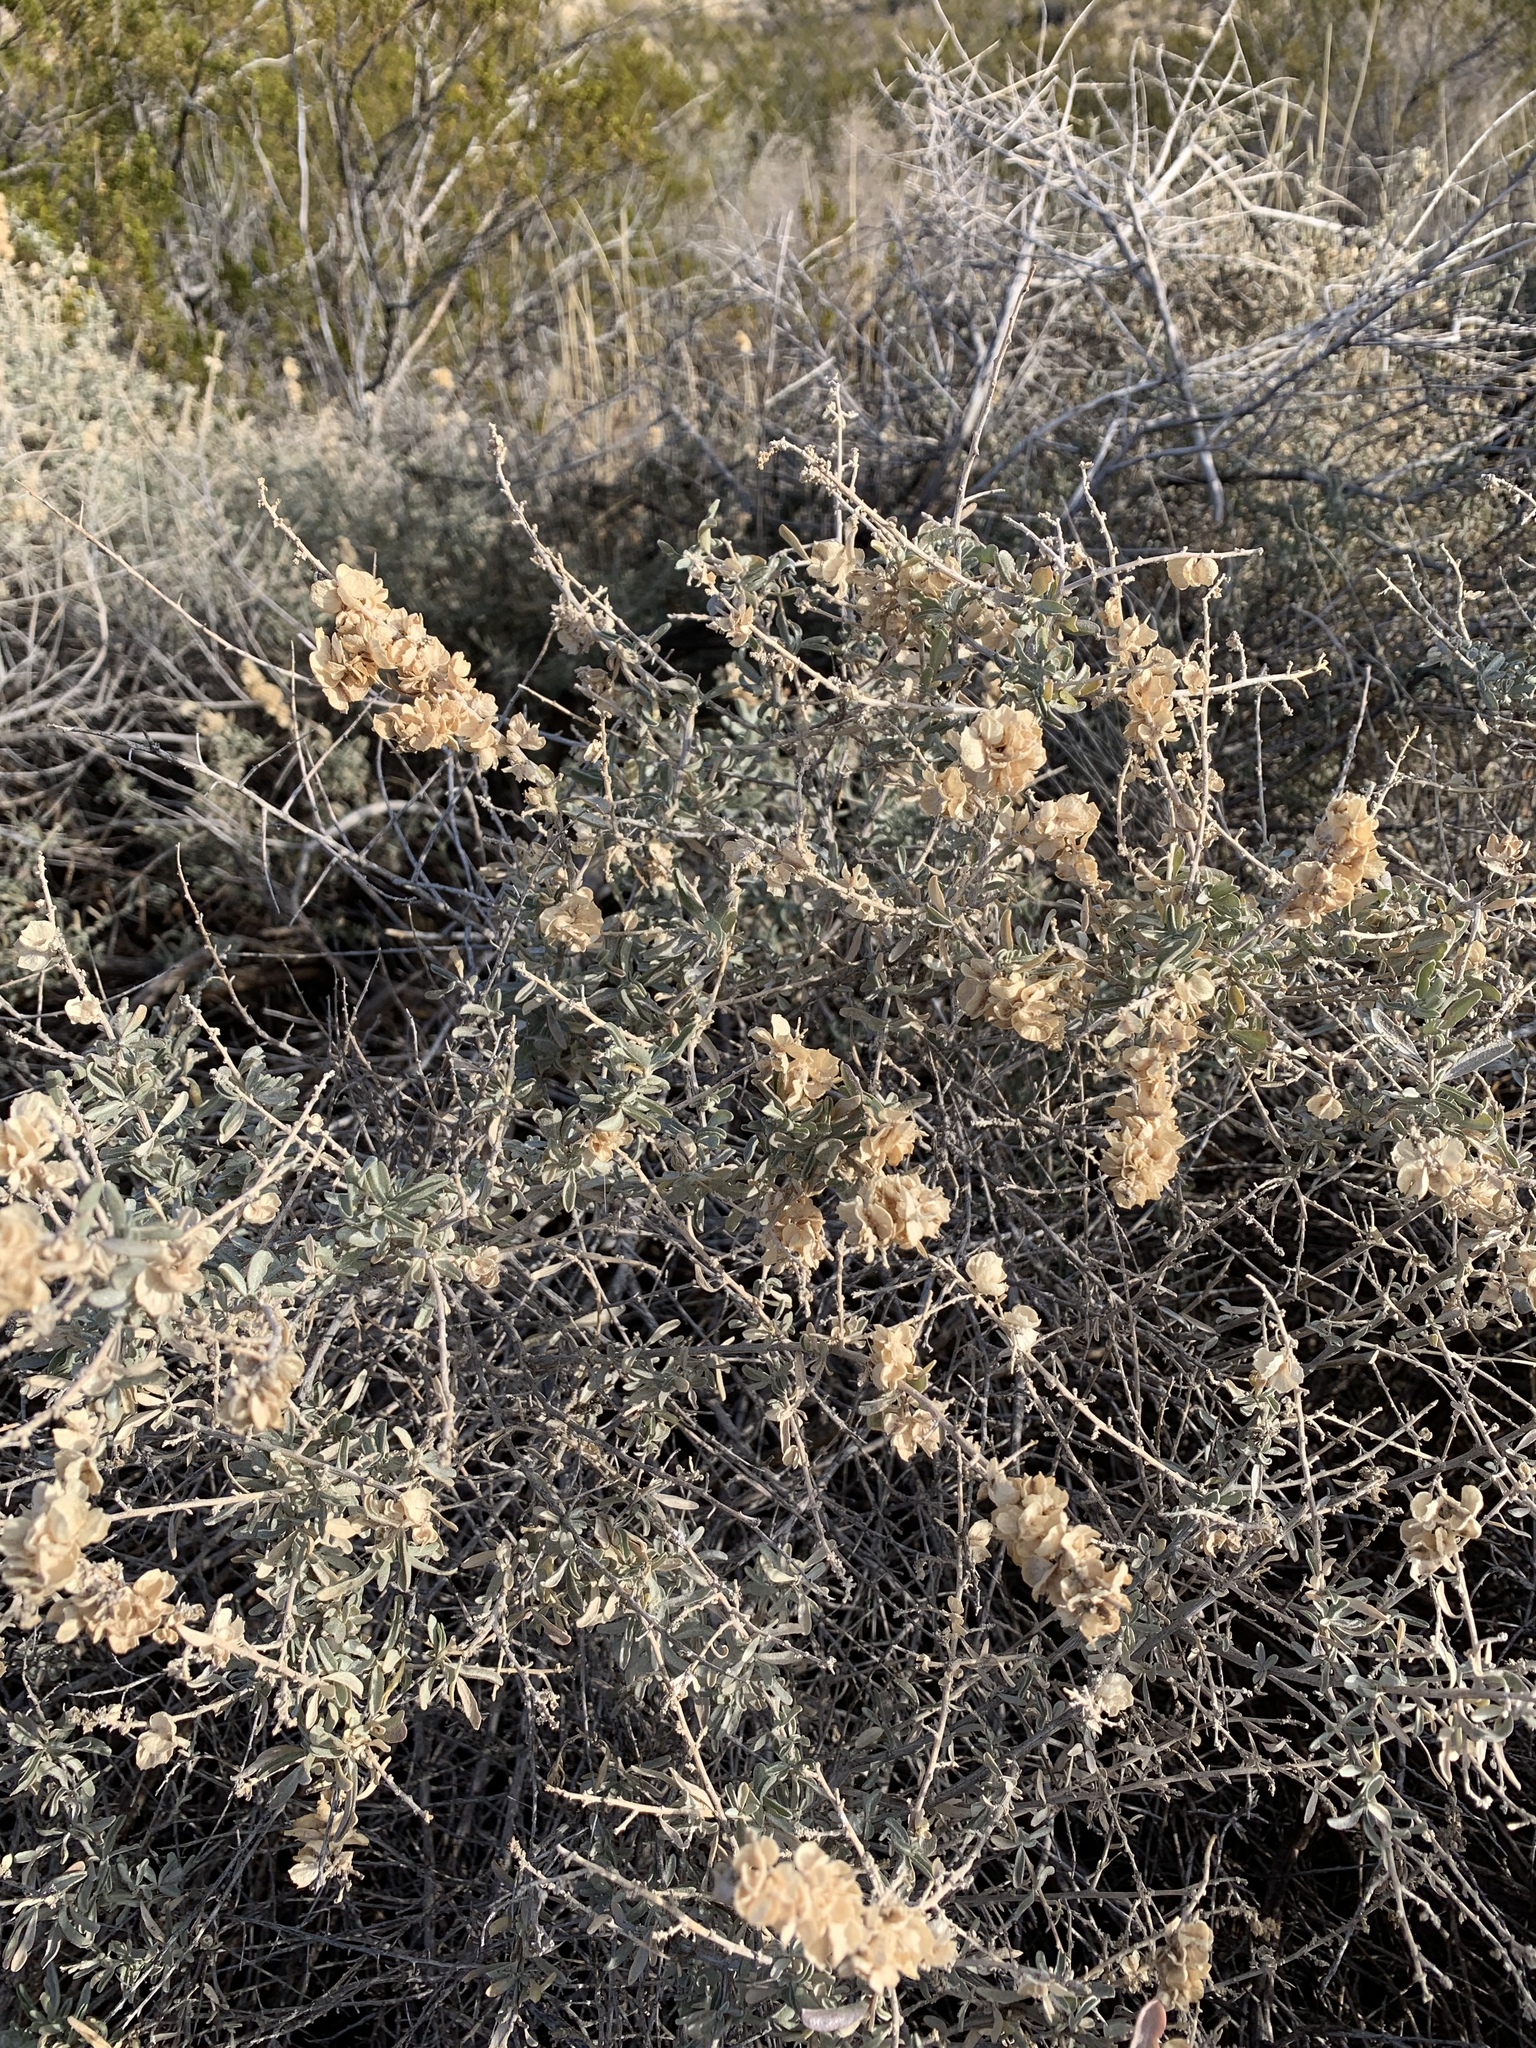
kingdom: Plantae
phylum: Tracheophyta
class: Magnoliopsida
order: Caryophyllales
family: Amaranthaceae
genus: Atriplex
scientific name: Atriplex canescens
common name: Four-wing saltbush
